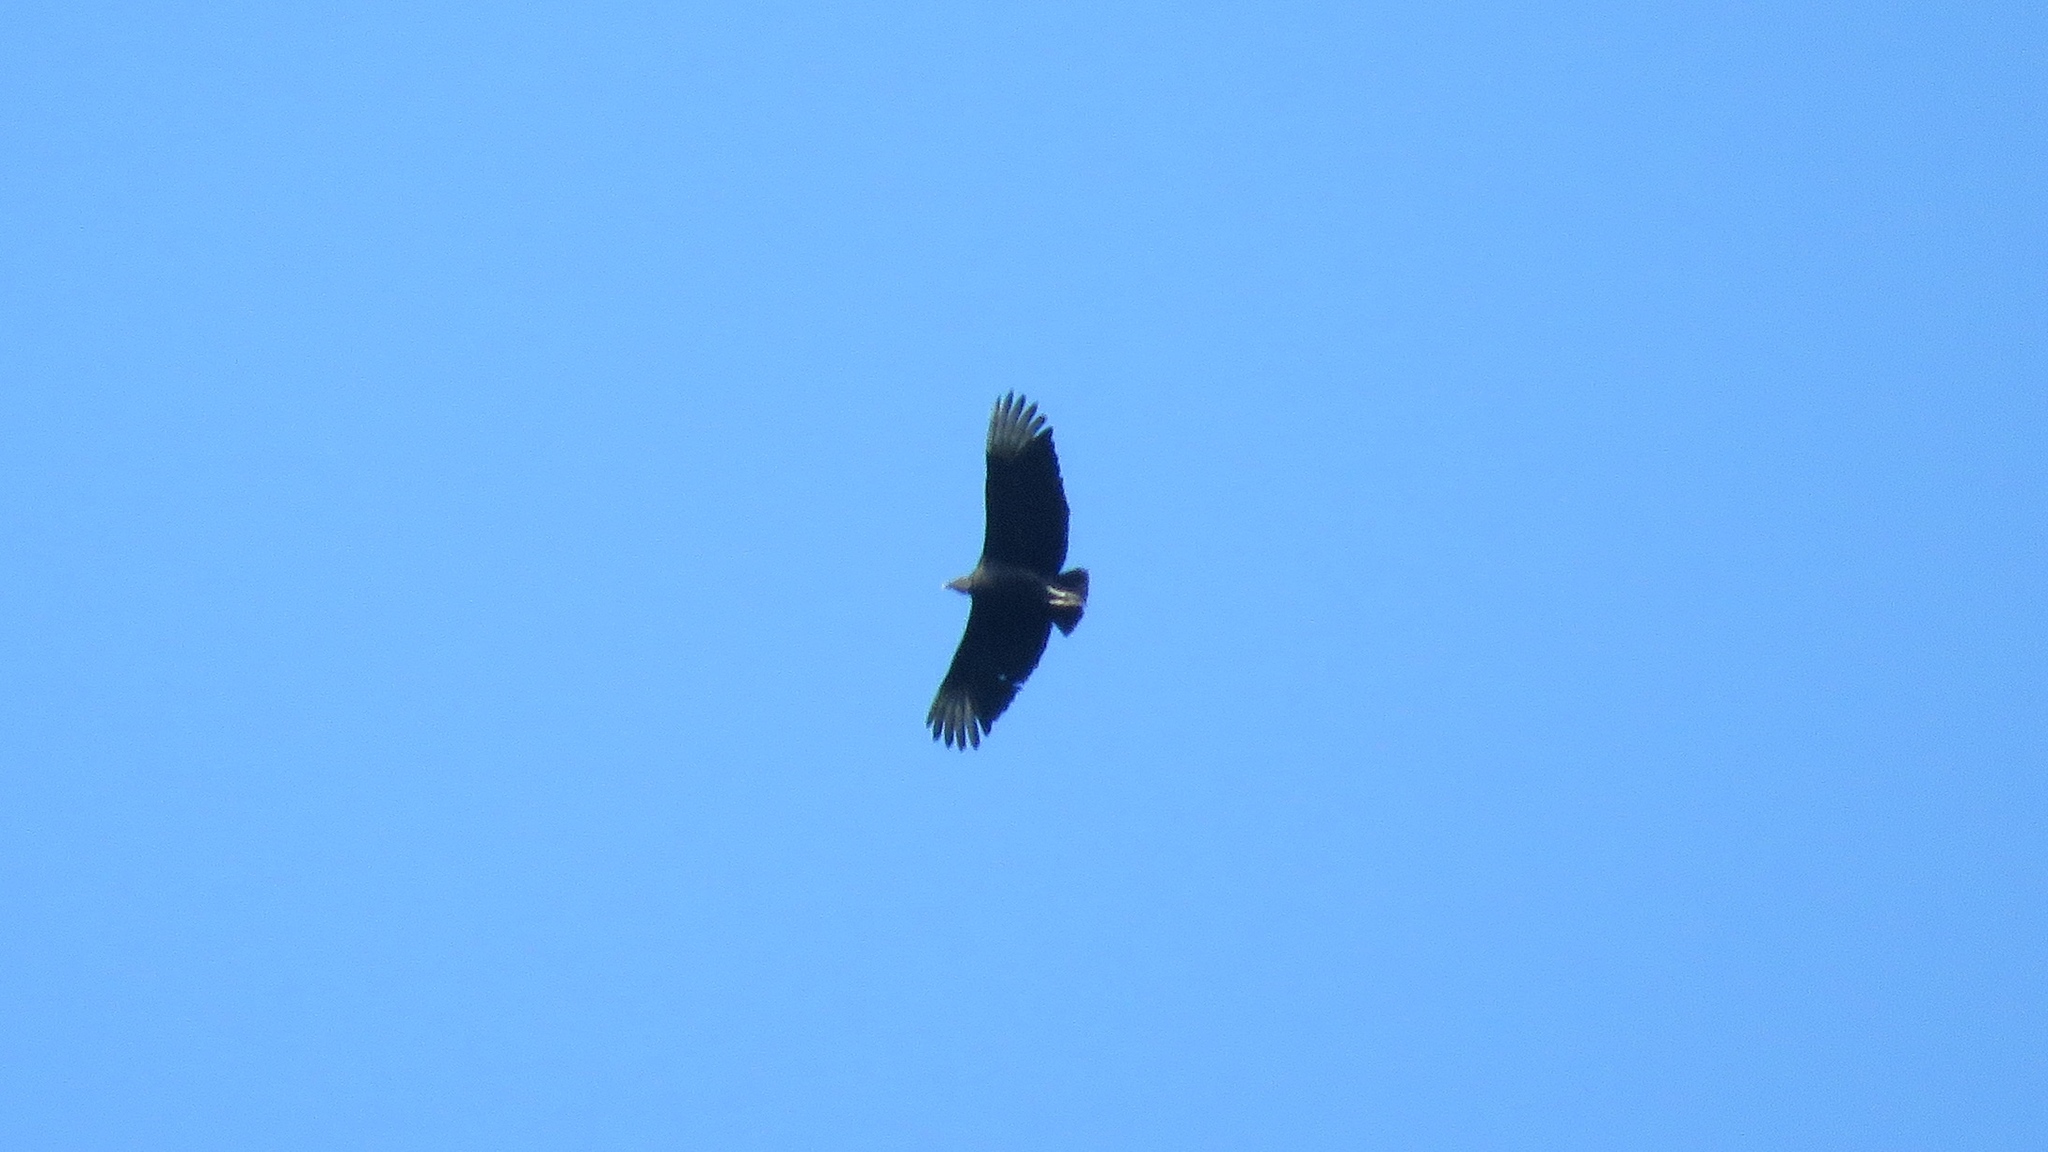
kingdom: Animalia
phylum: Chordata
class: Aves
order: Accipitriformes
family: Cathartidae
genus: Coragyps
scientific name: Coragyps atratus
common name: Black vulture
